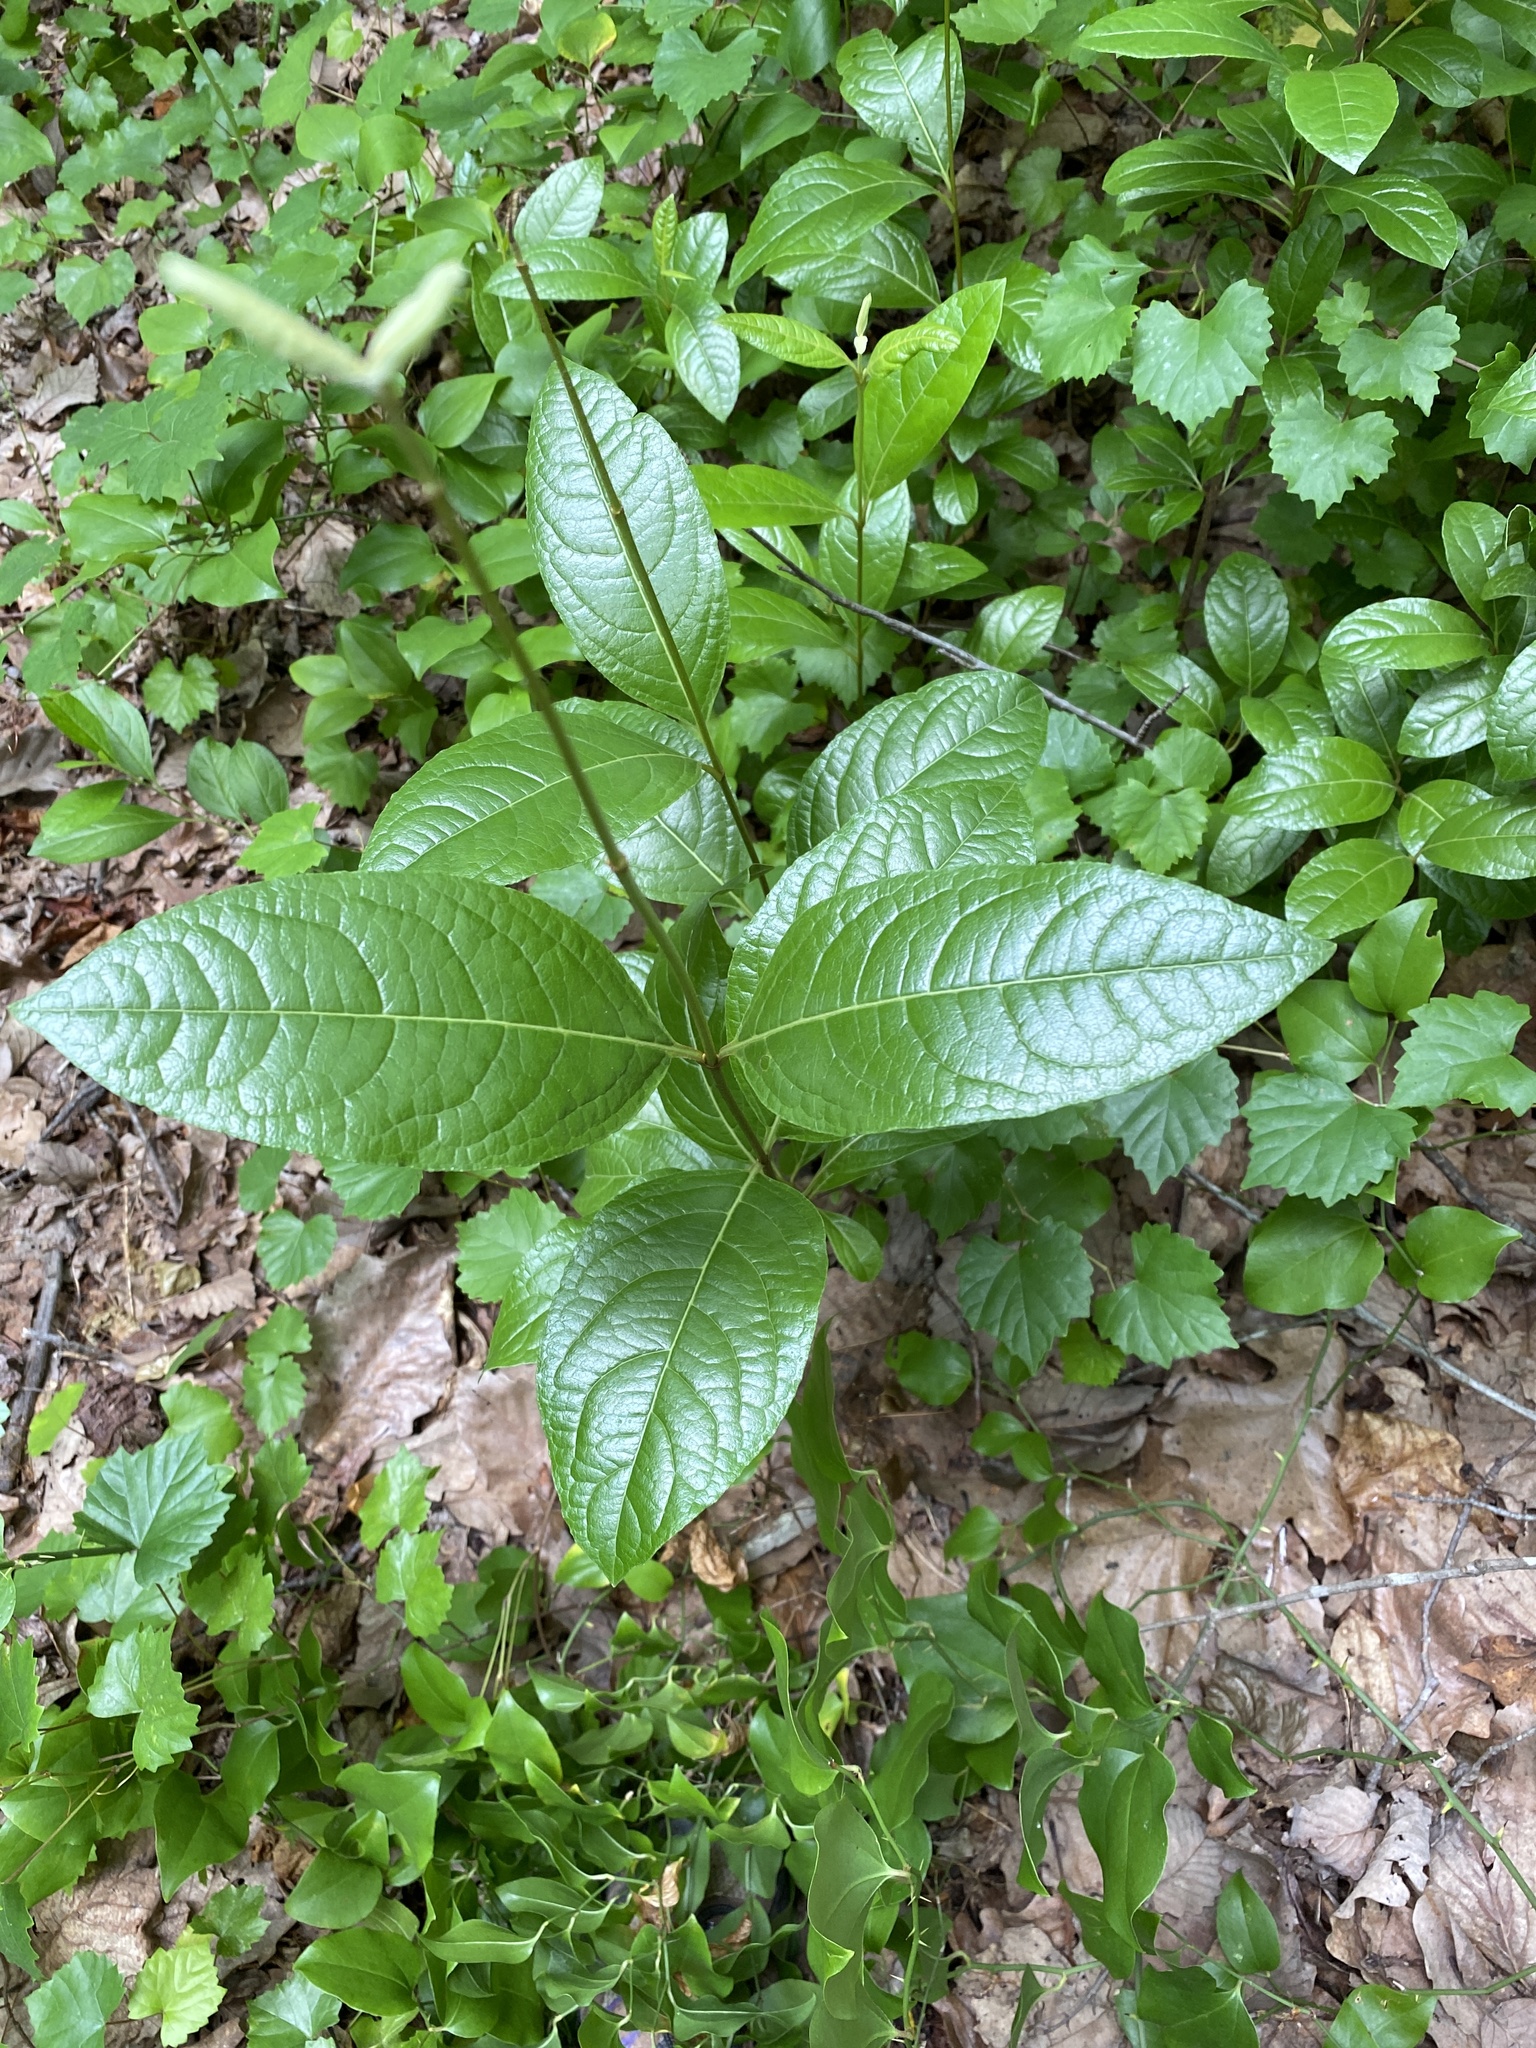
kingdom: Plantae
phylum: Tracheophyta
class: Magnoliopsida
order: Dipsacales
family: Viburnaceae
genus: Viburnum
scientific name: Viburnum nudum
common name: Possum haw
